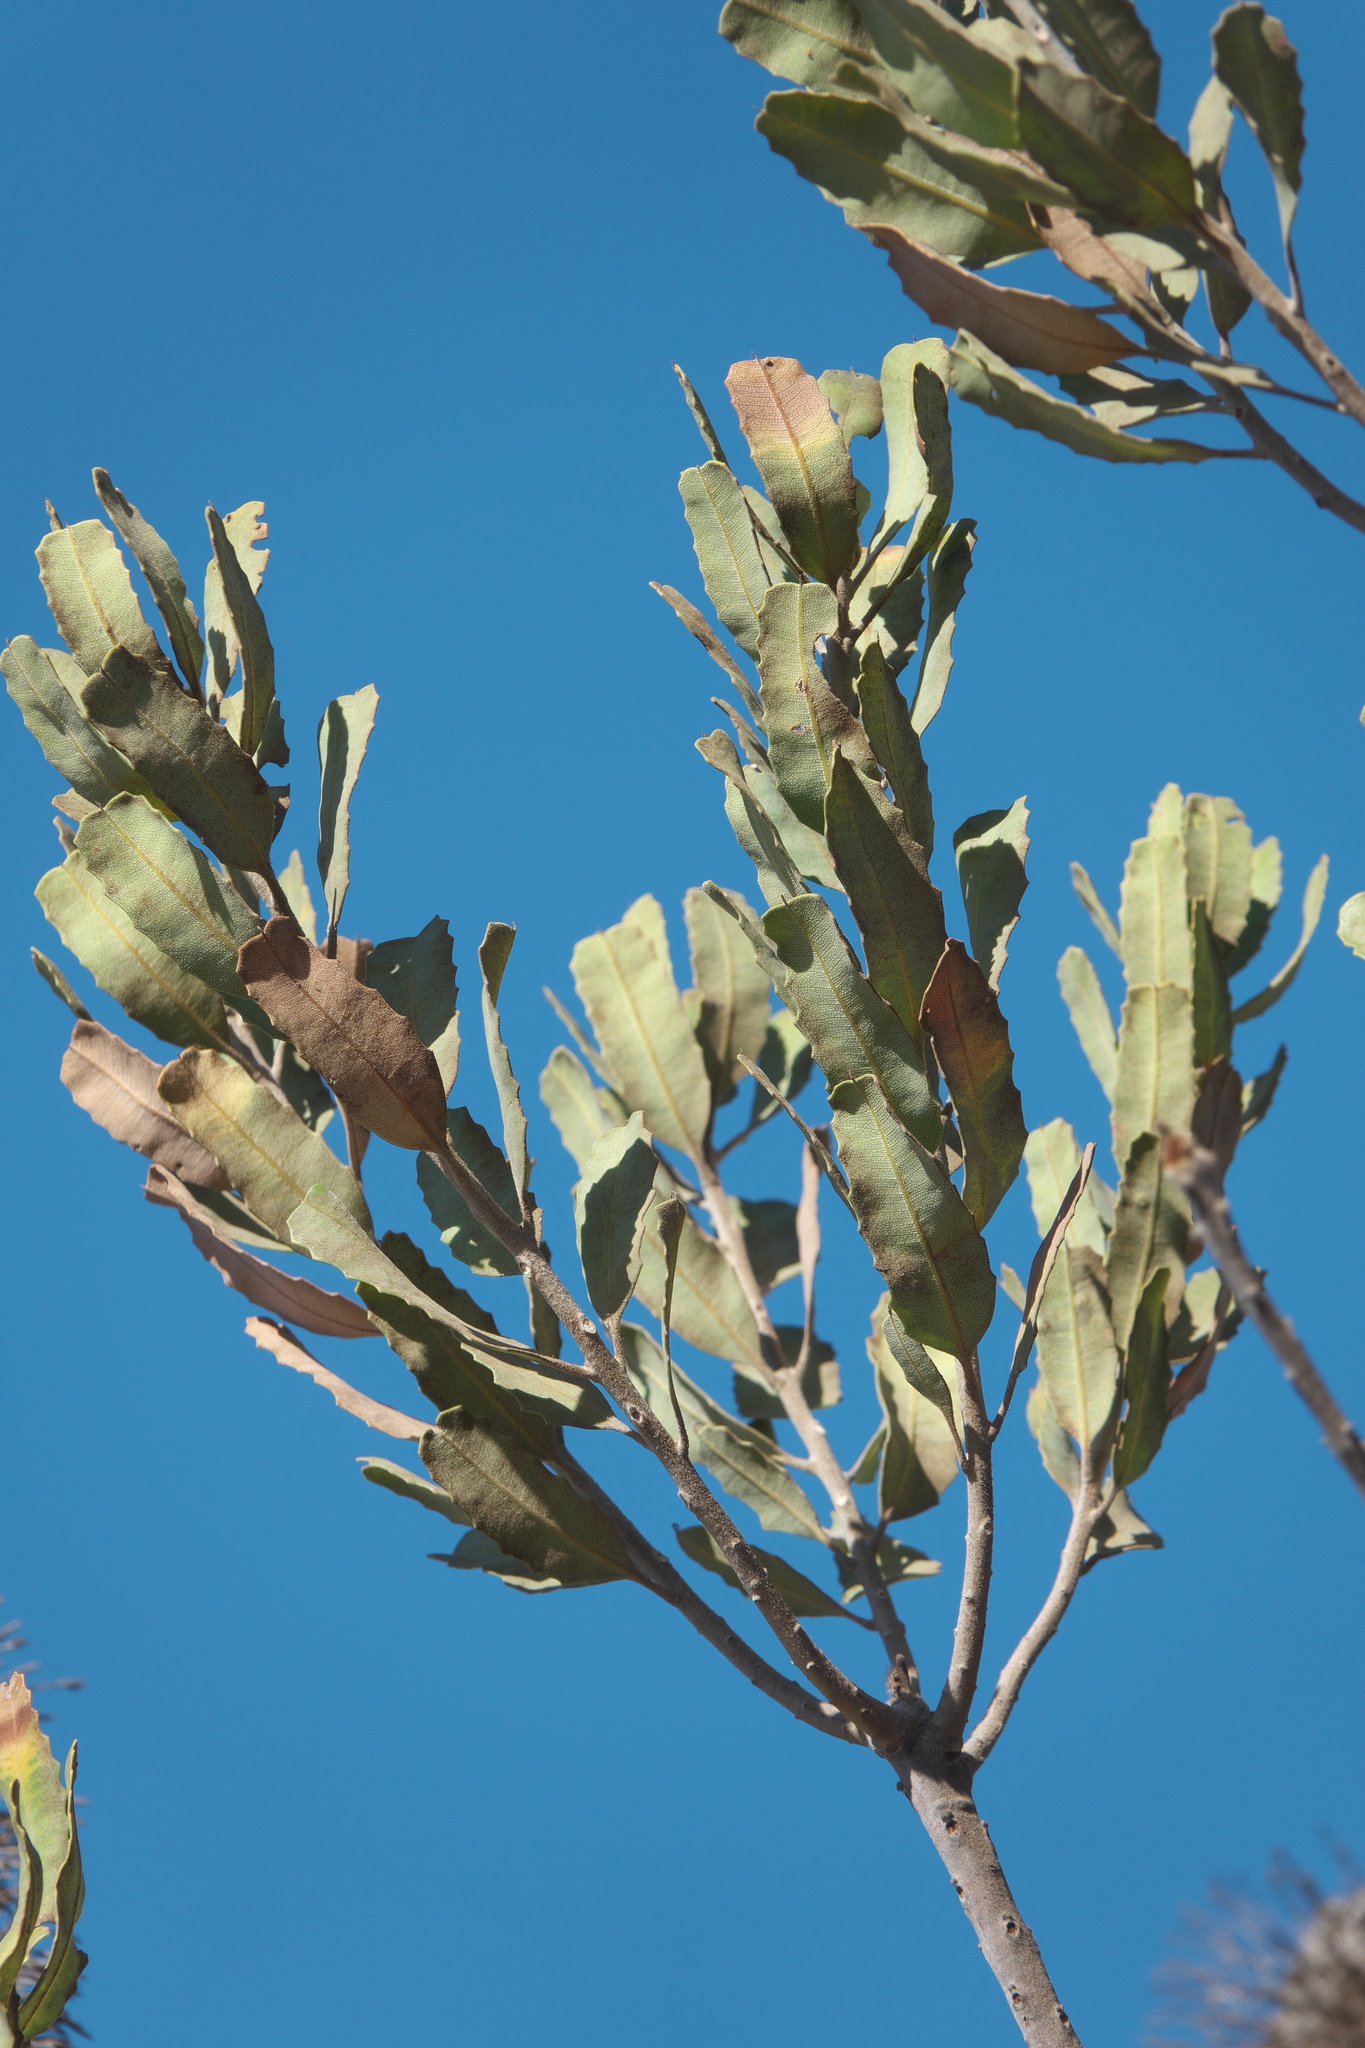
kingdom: Plantae
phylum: Tracheophyta
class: Magnoliopsida
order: Proteales
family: Proteaceae
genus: Banksia
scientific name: Banksia sceptrum
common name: Sceptre banksia
